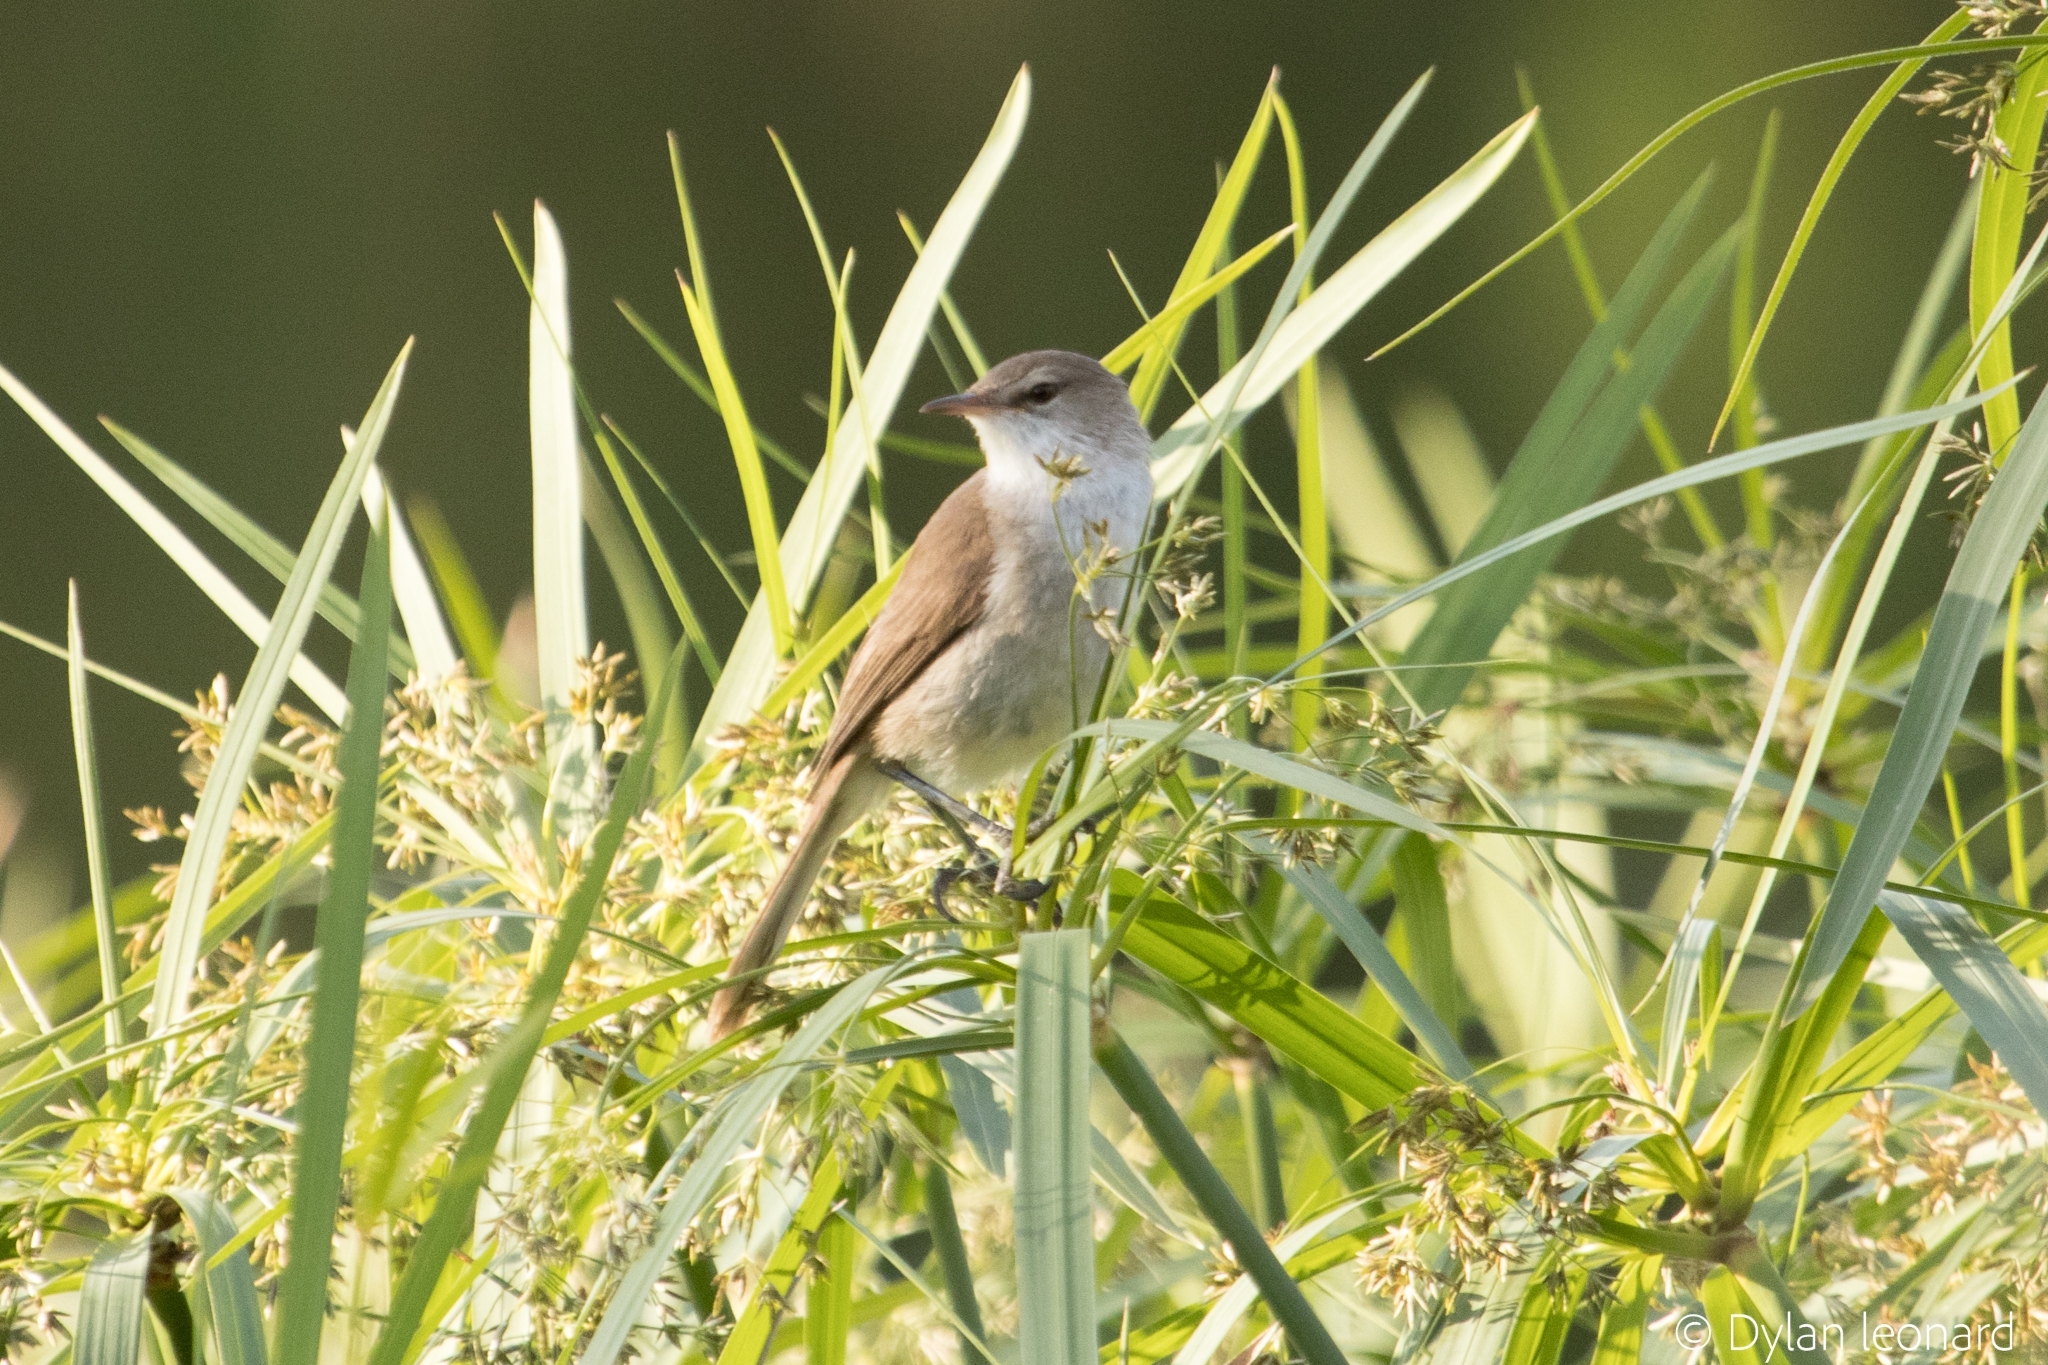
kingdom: Animalia
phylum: Chordata
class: Aves
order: Passeriformes
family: Acrocephalidae
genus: Acrocephalus
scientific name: Acrocephalus gracilirostris
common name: Lesser swamp warbler
